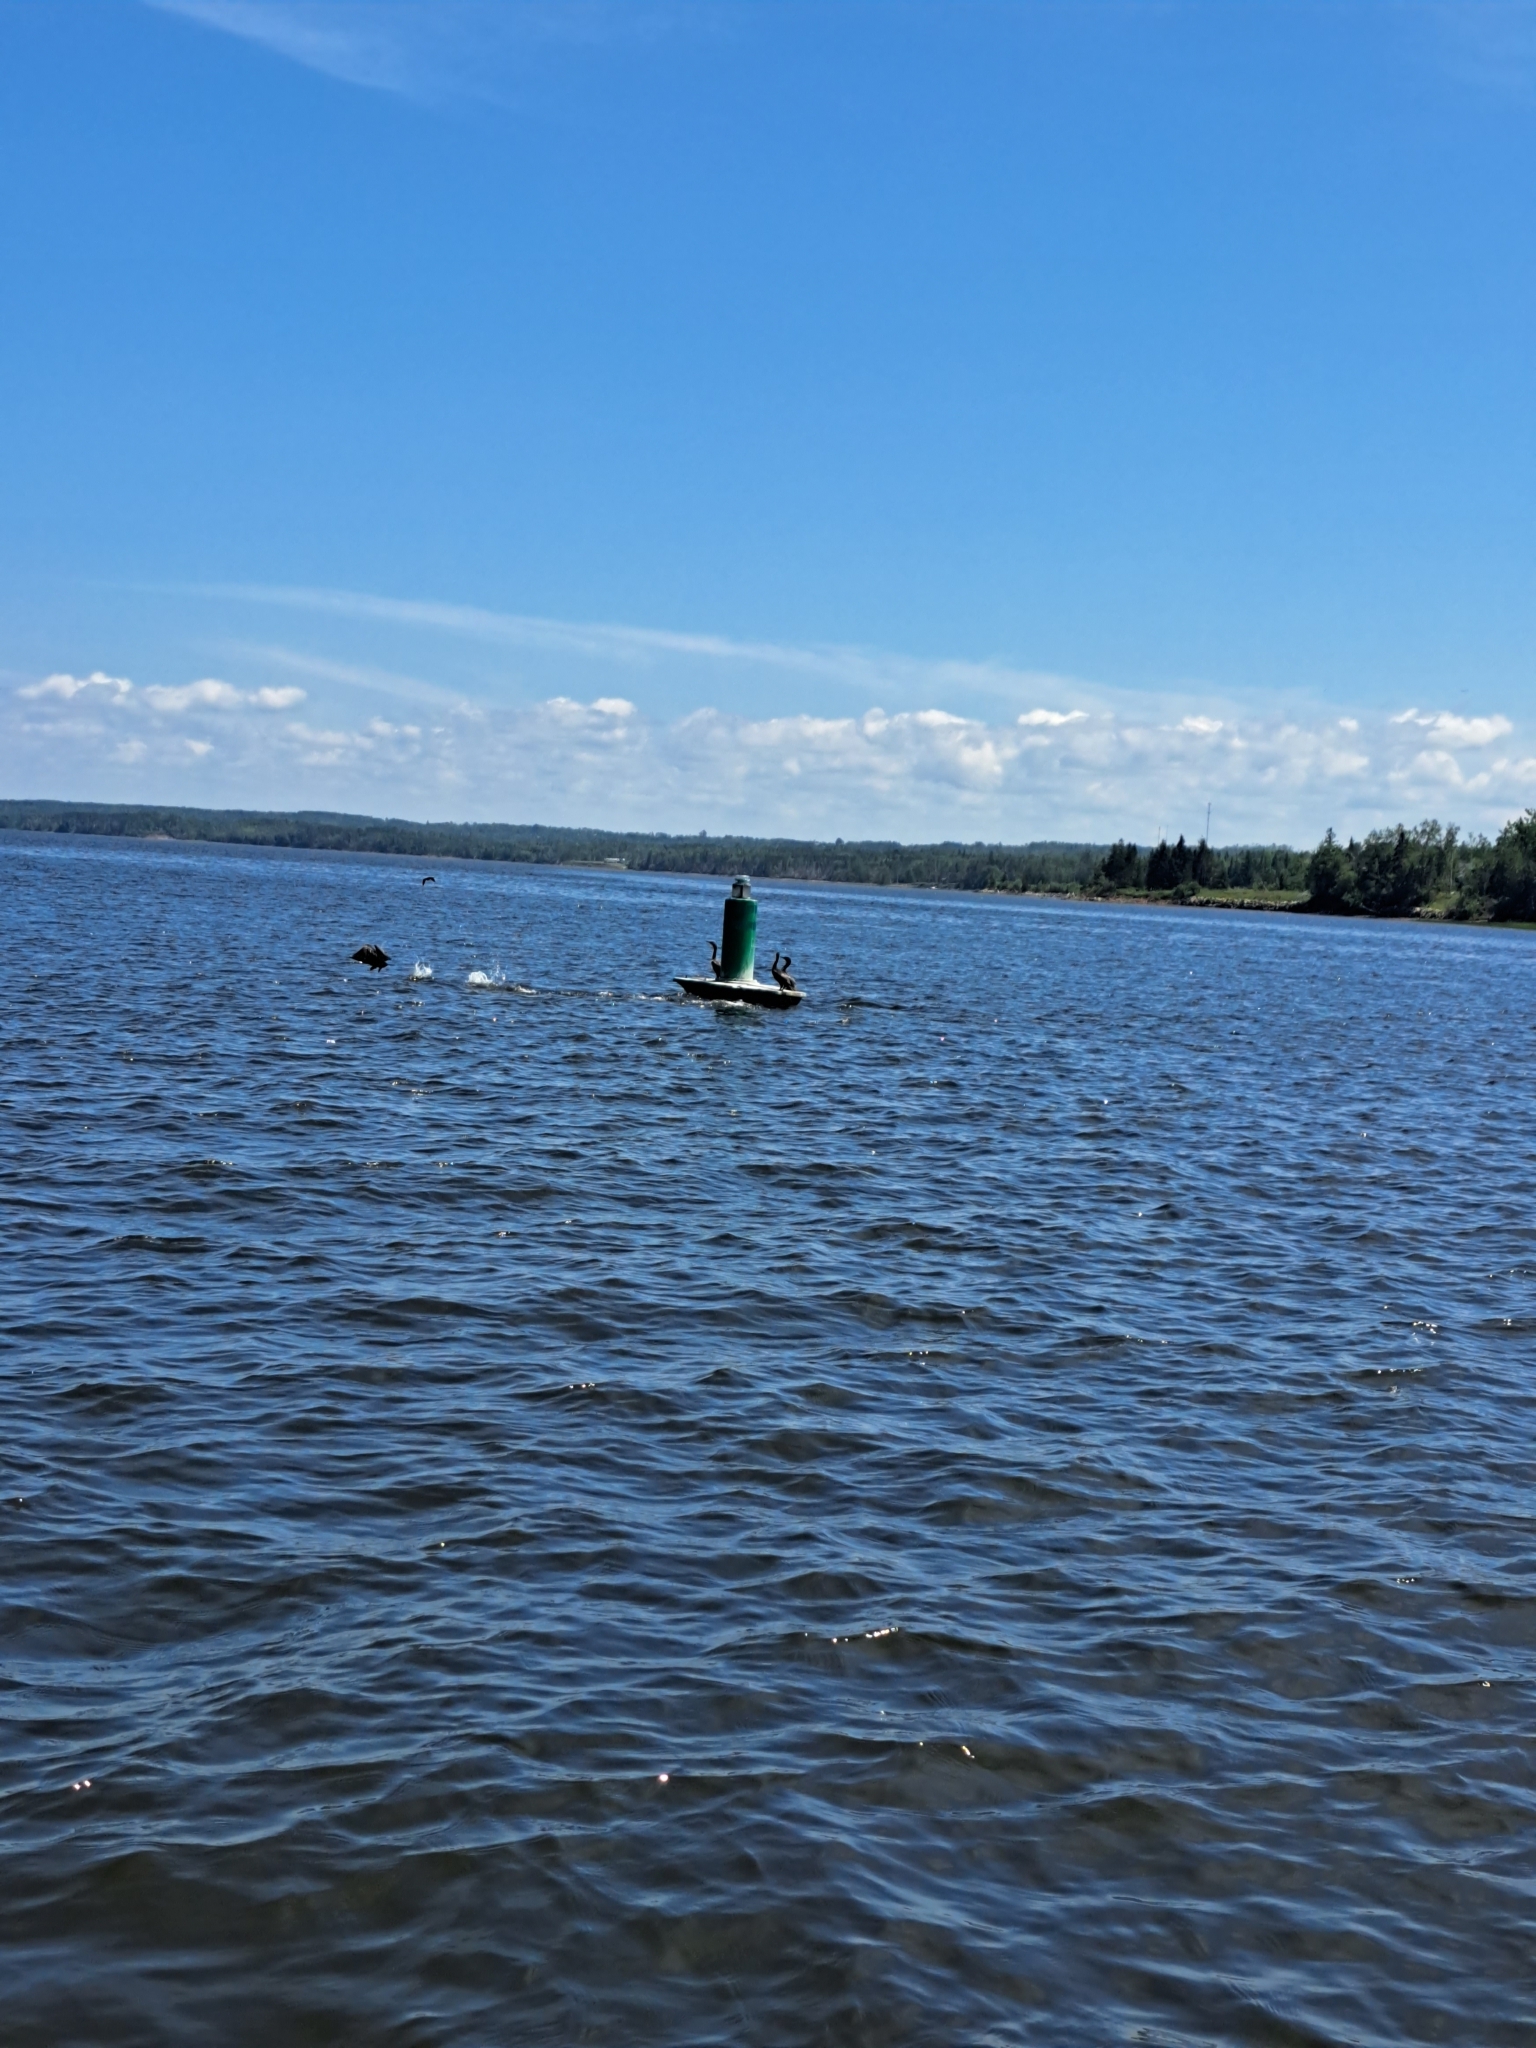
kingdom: Animalia
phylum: Chordata
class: Aves
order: Suliformes
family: Phalacrocoracidae
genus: Phalacrocorax
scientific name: Phalacrocorax auritus
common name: Double-crested cormorant
